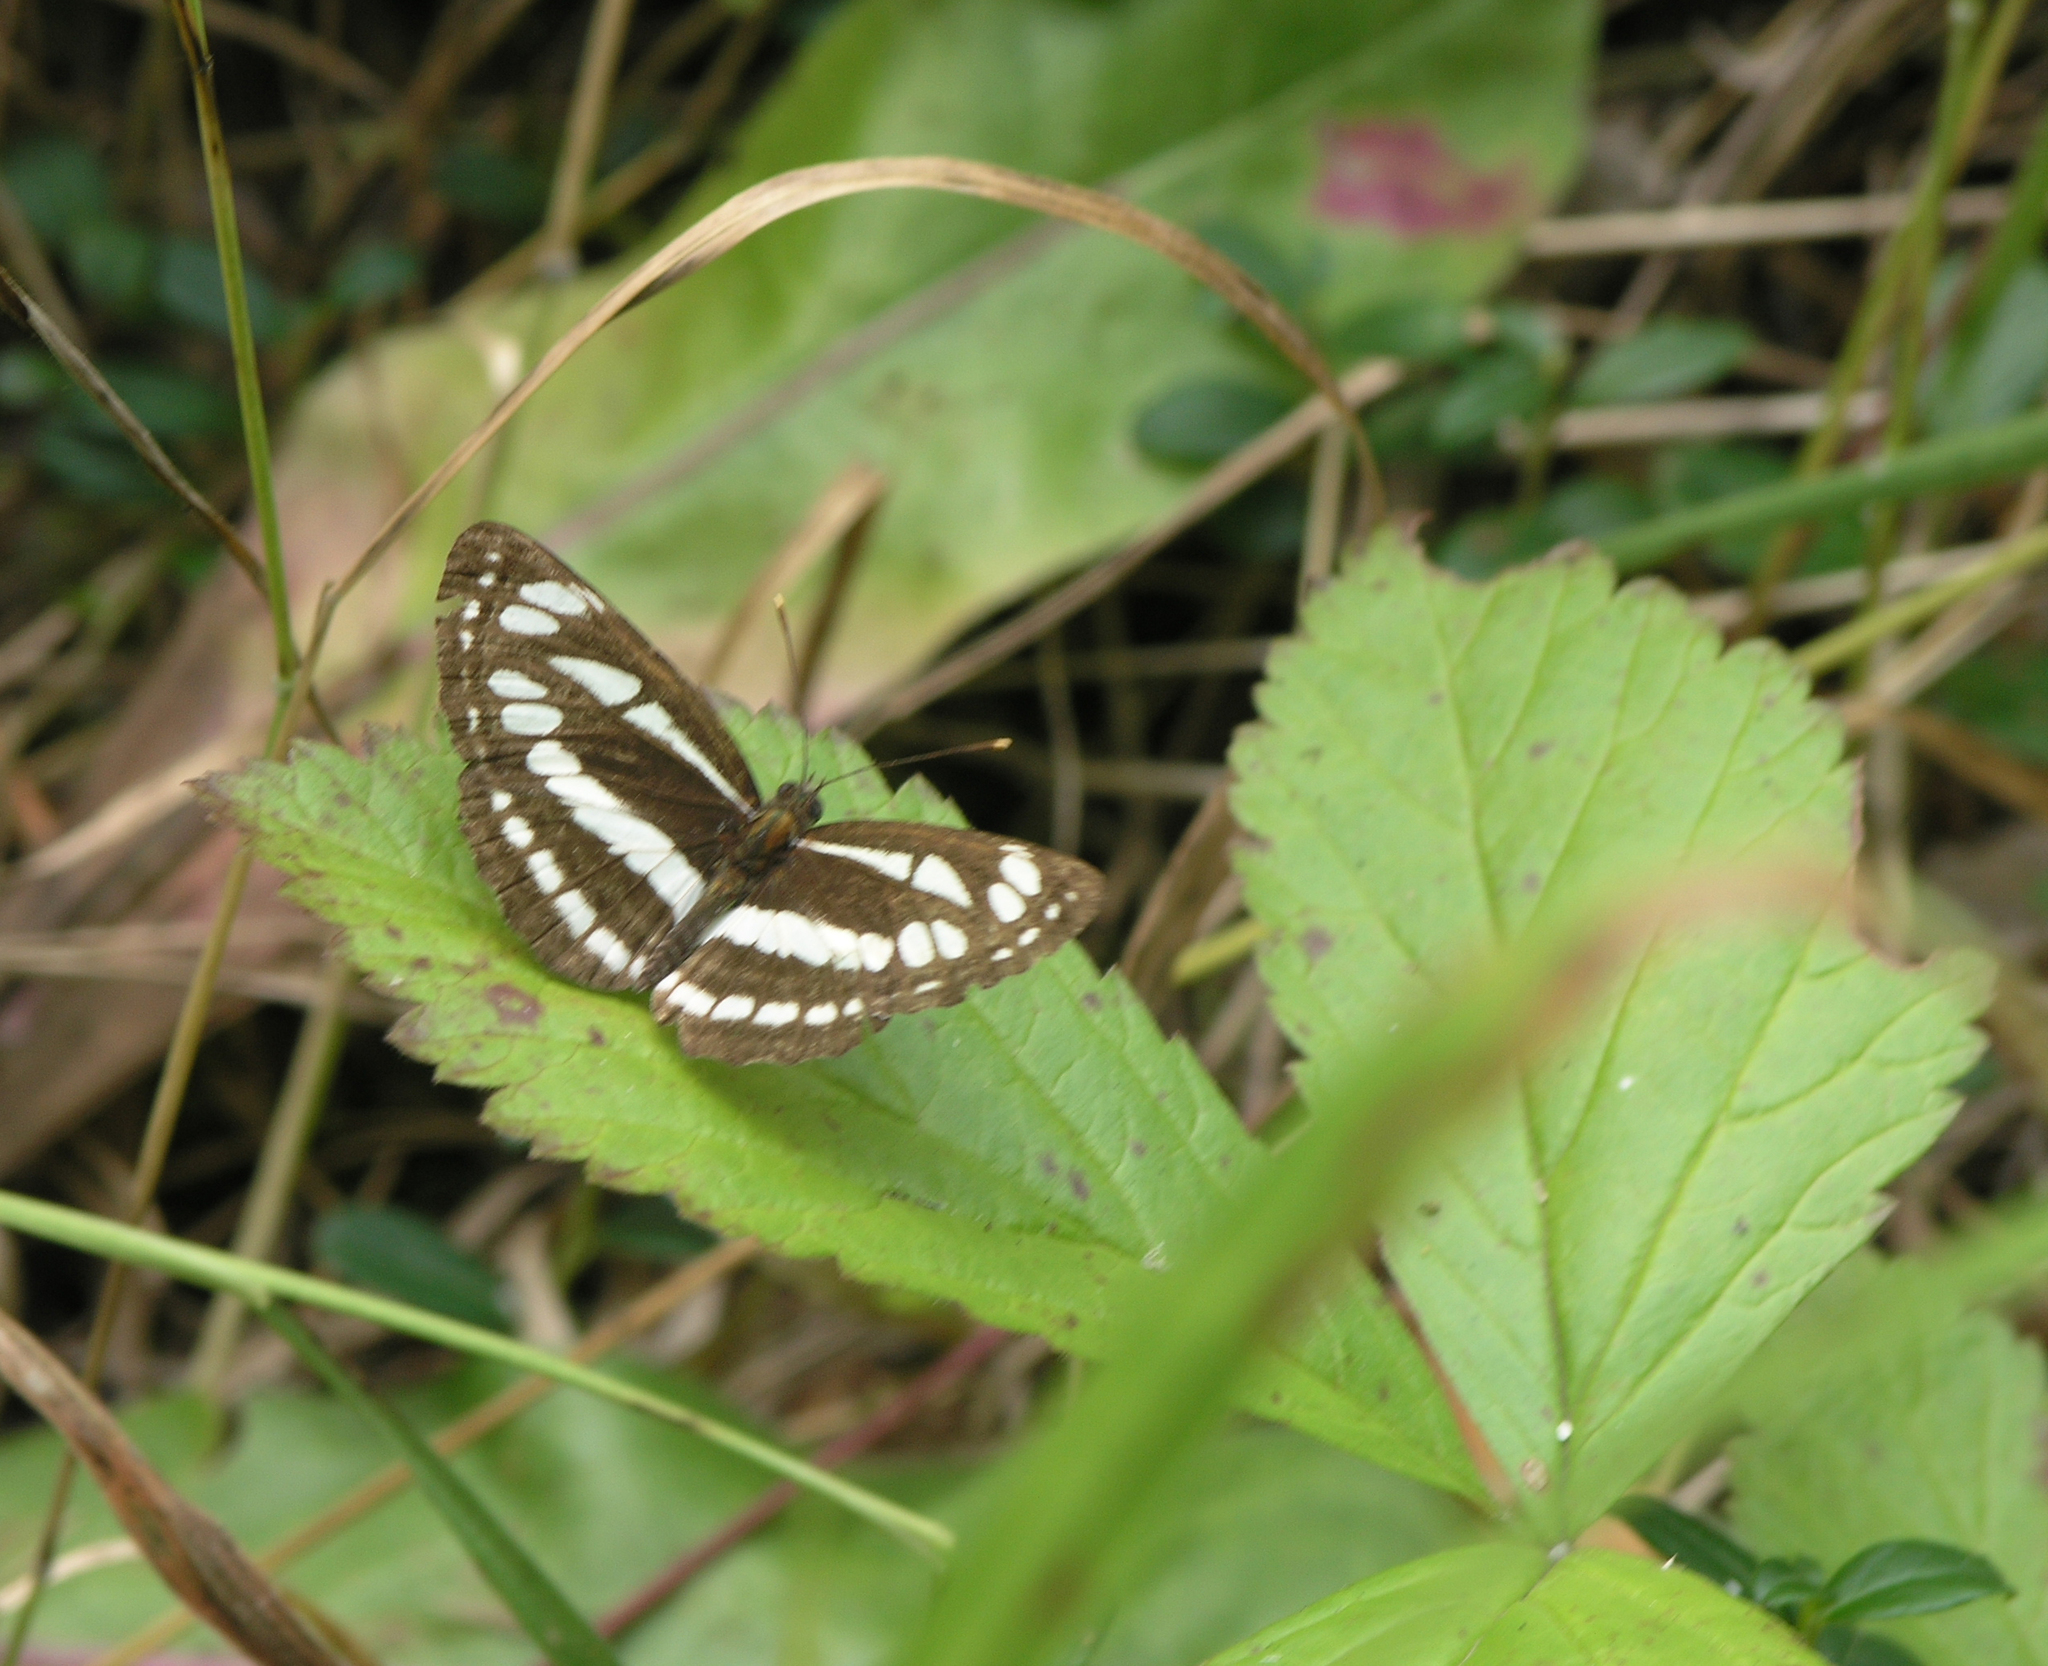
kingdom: Animalia
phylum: Arthropoda
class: Insecta
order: Lepidoptera
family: Nymphalidae
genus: Neptis
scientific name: Neptis sappho
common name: Common glider
